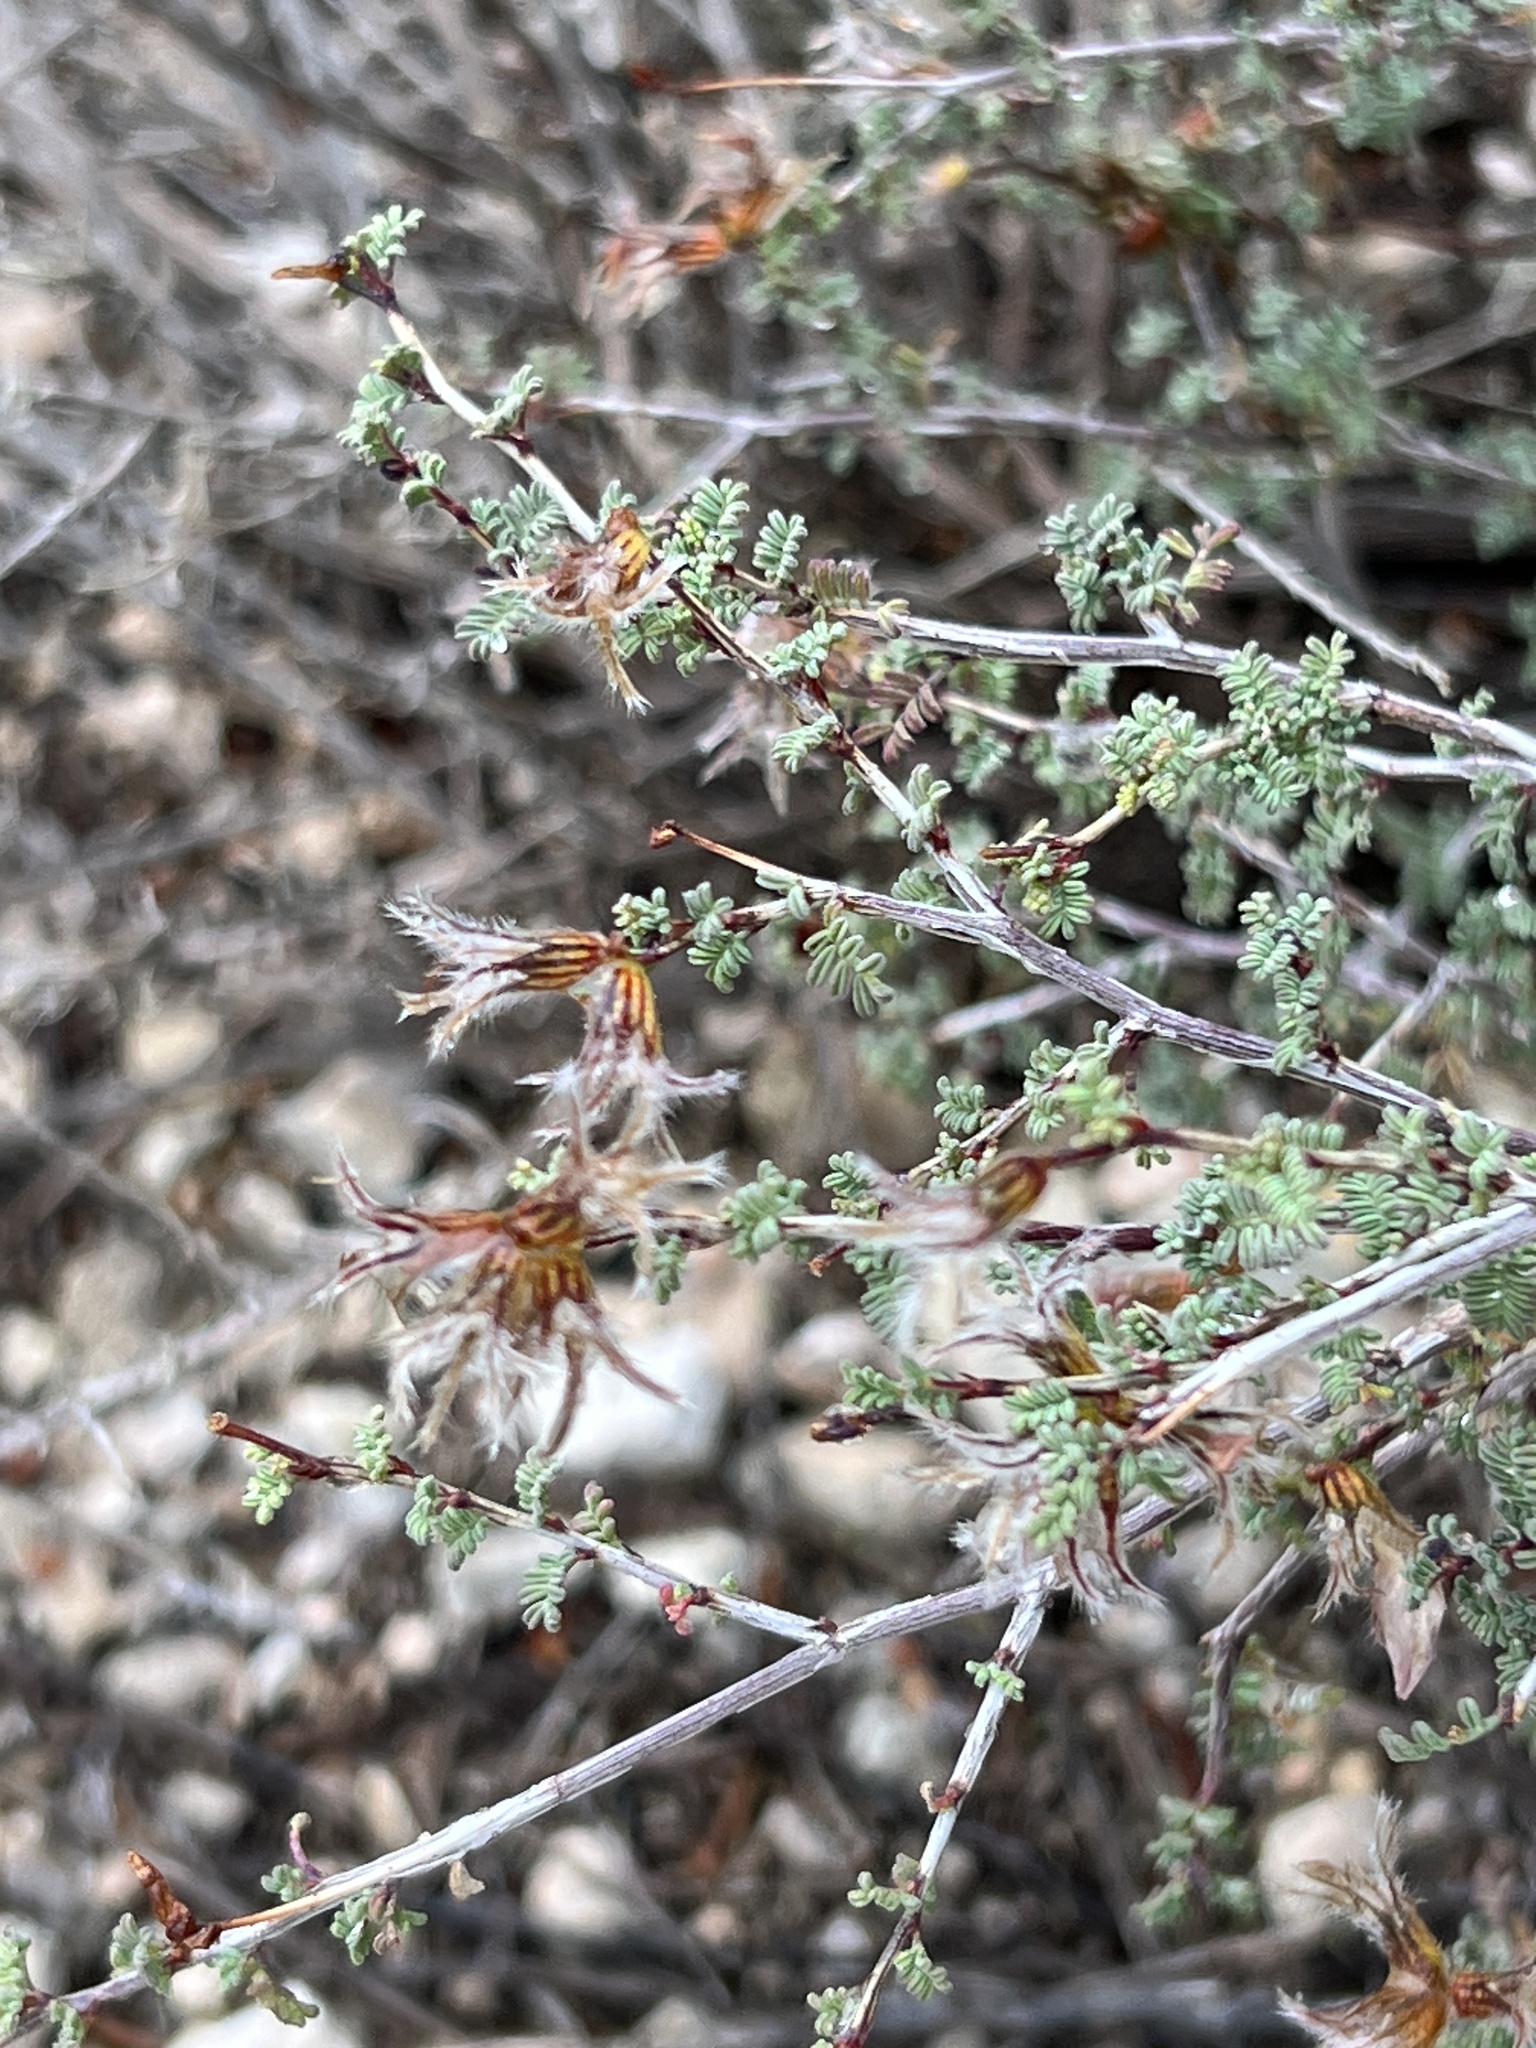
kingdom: Plantae
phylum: Tracheophyta
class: Magnoliopsida
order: Fabales
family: Fabaceae
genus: Dalea
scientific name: Dalea formosa
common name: Feather-plume dalea
